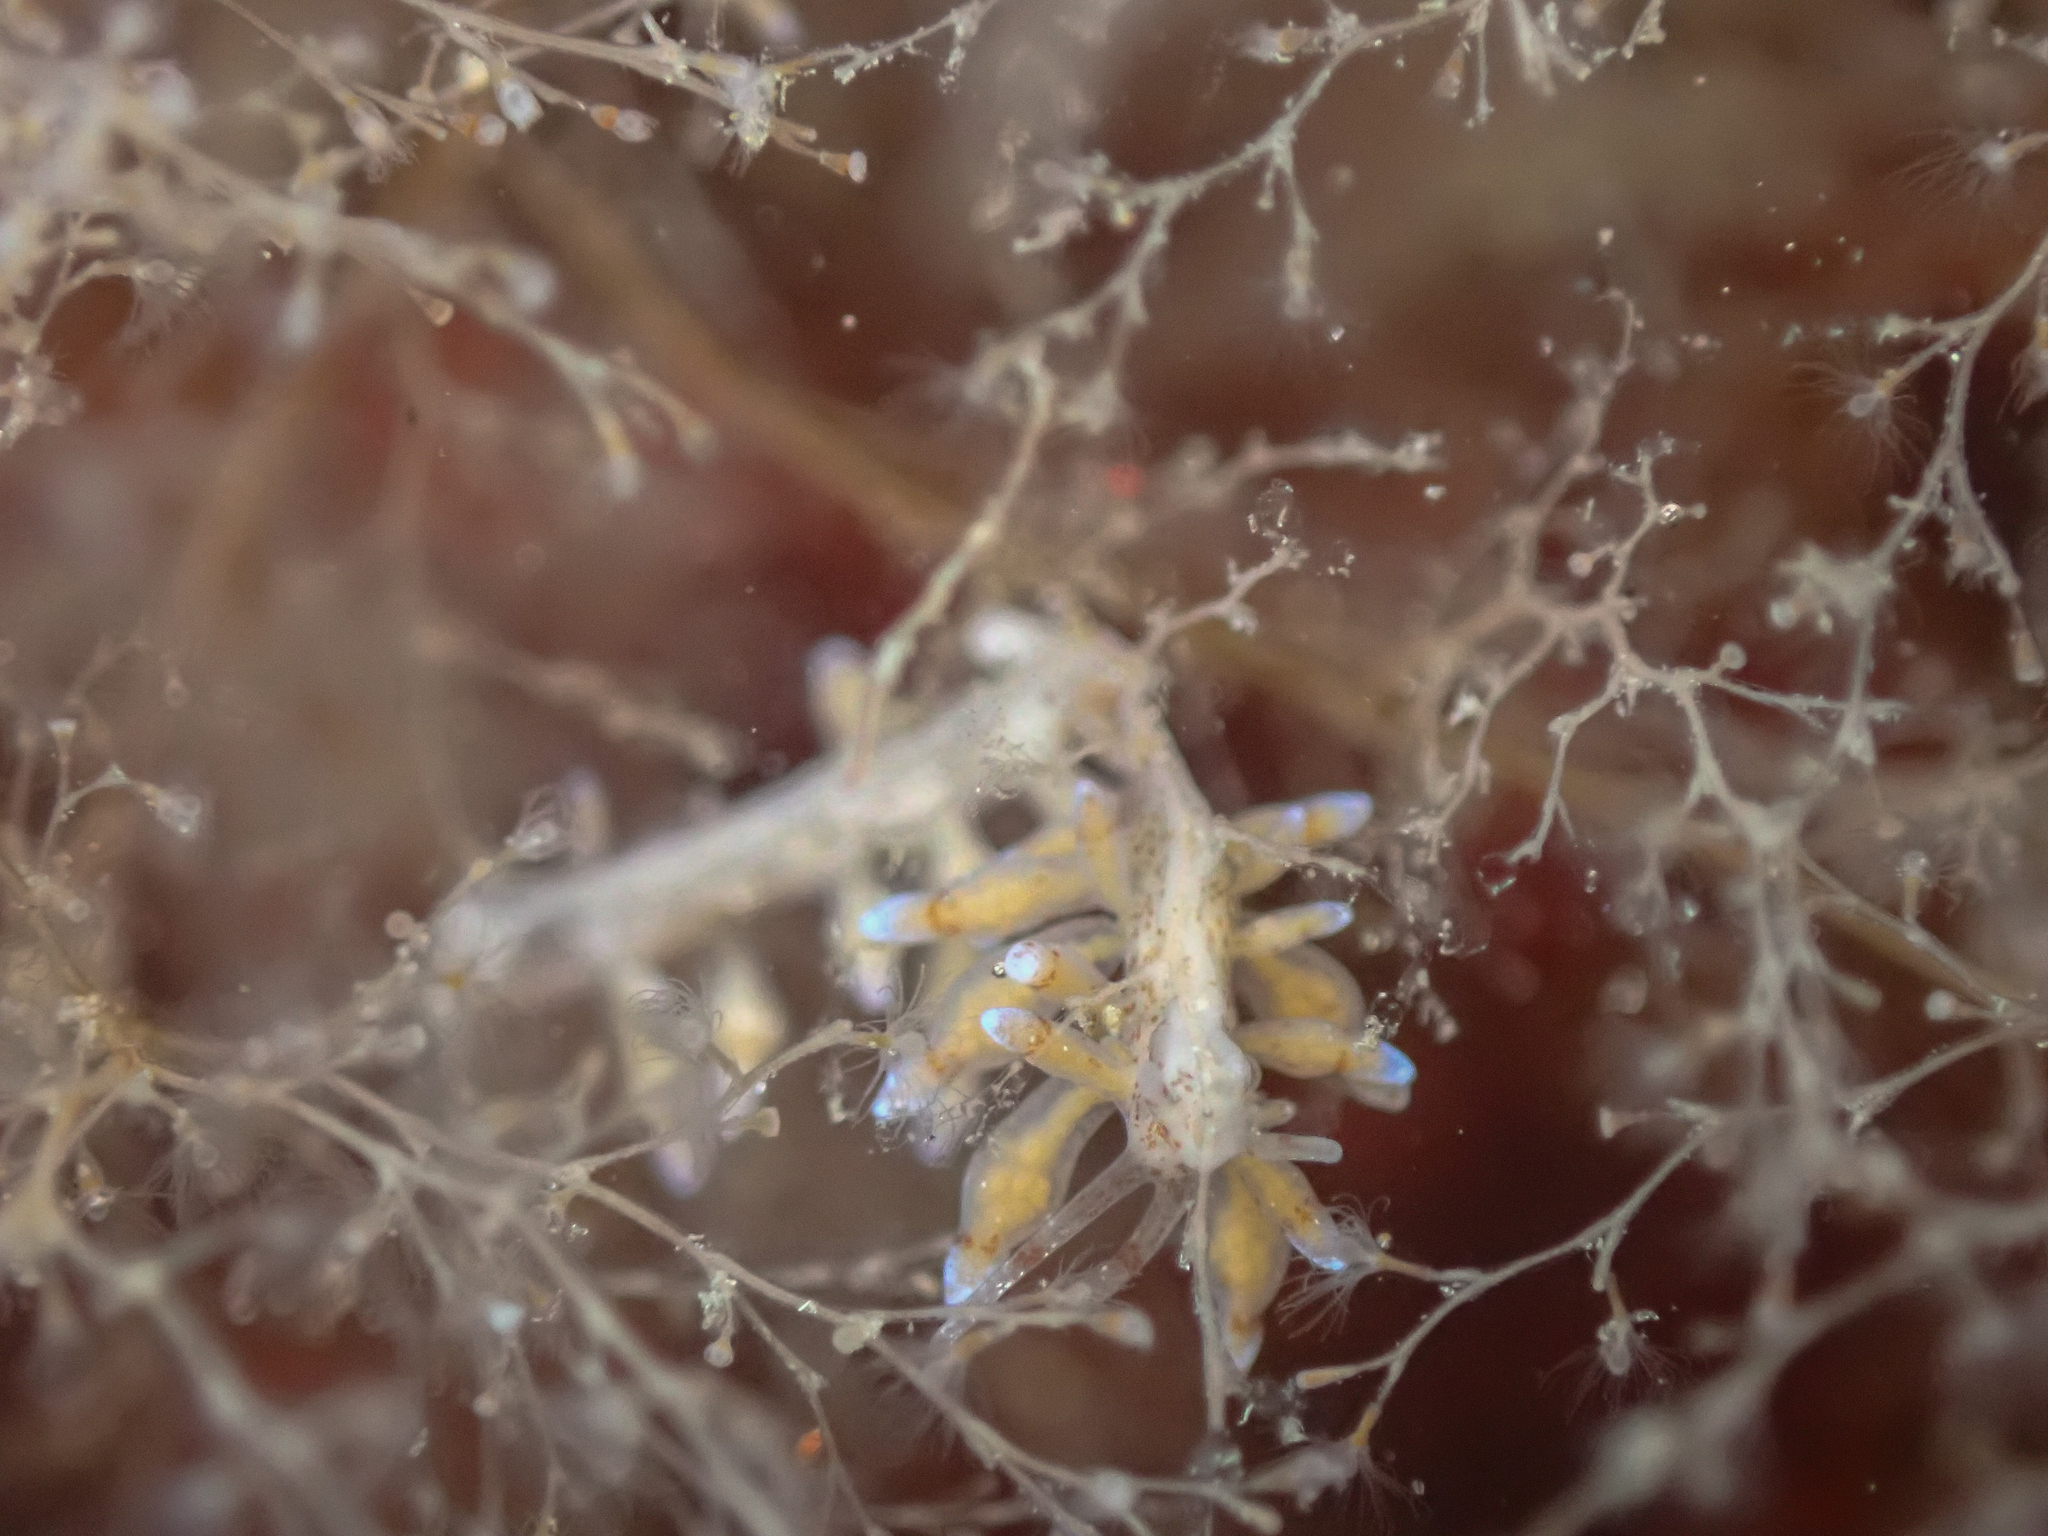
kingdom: Animalia
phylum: Mollusca
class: Gastropoda
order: Nudibranchia
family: Eubranchidae
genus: Eubranchus
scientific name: Eubranchus rupium
